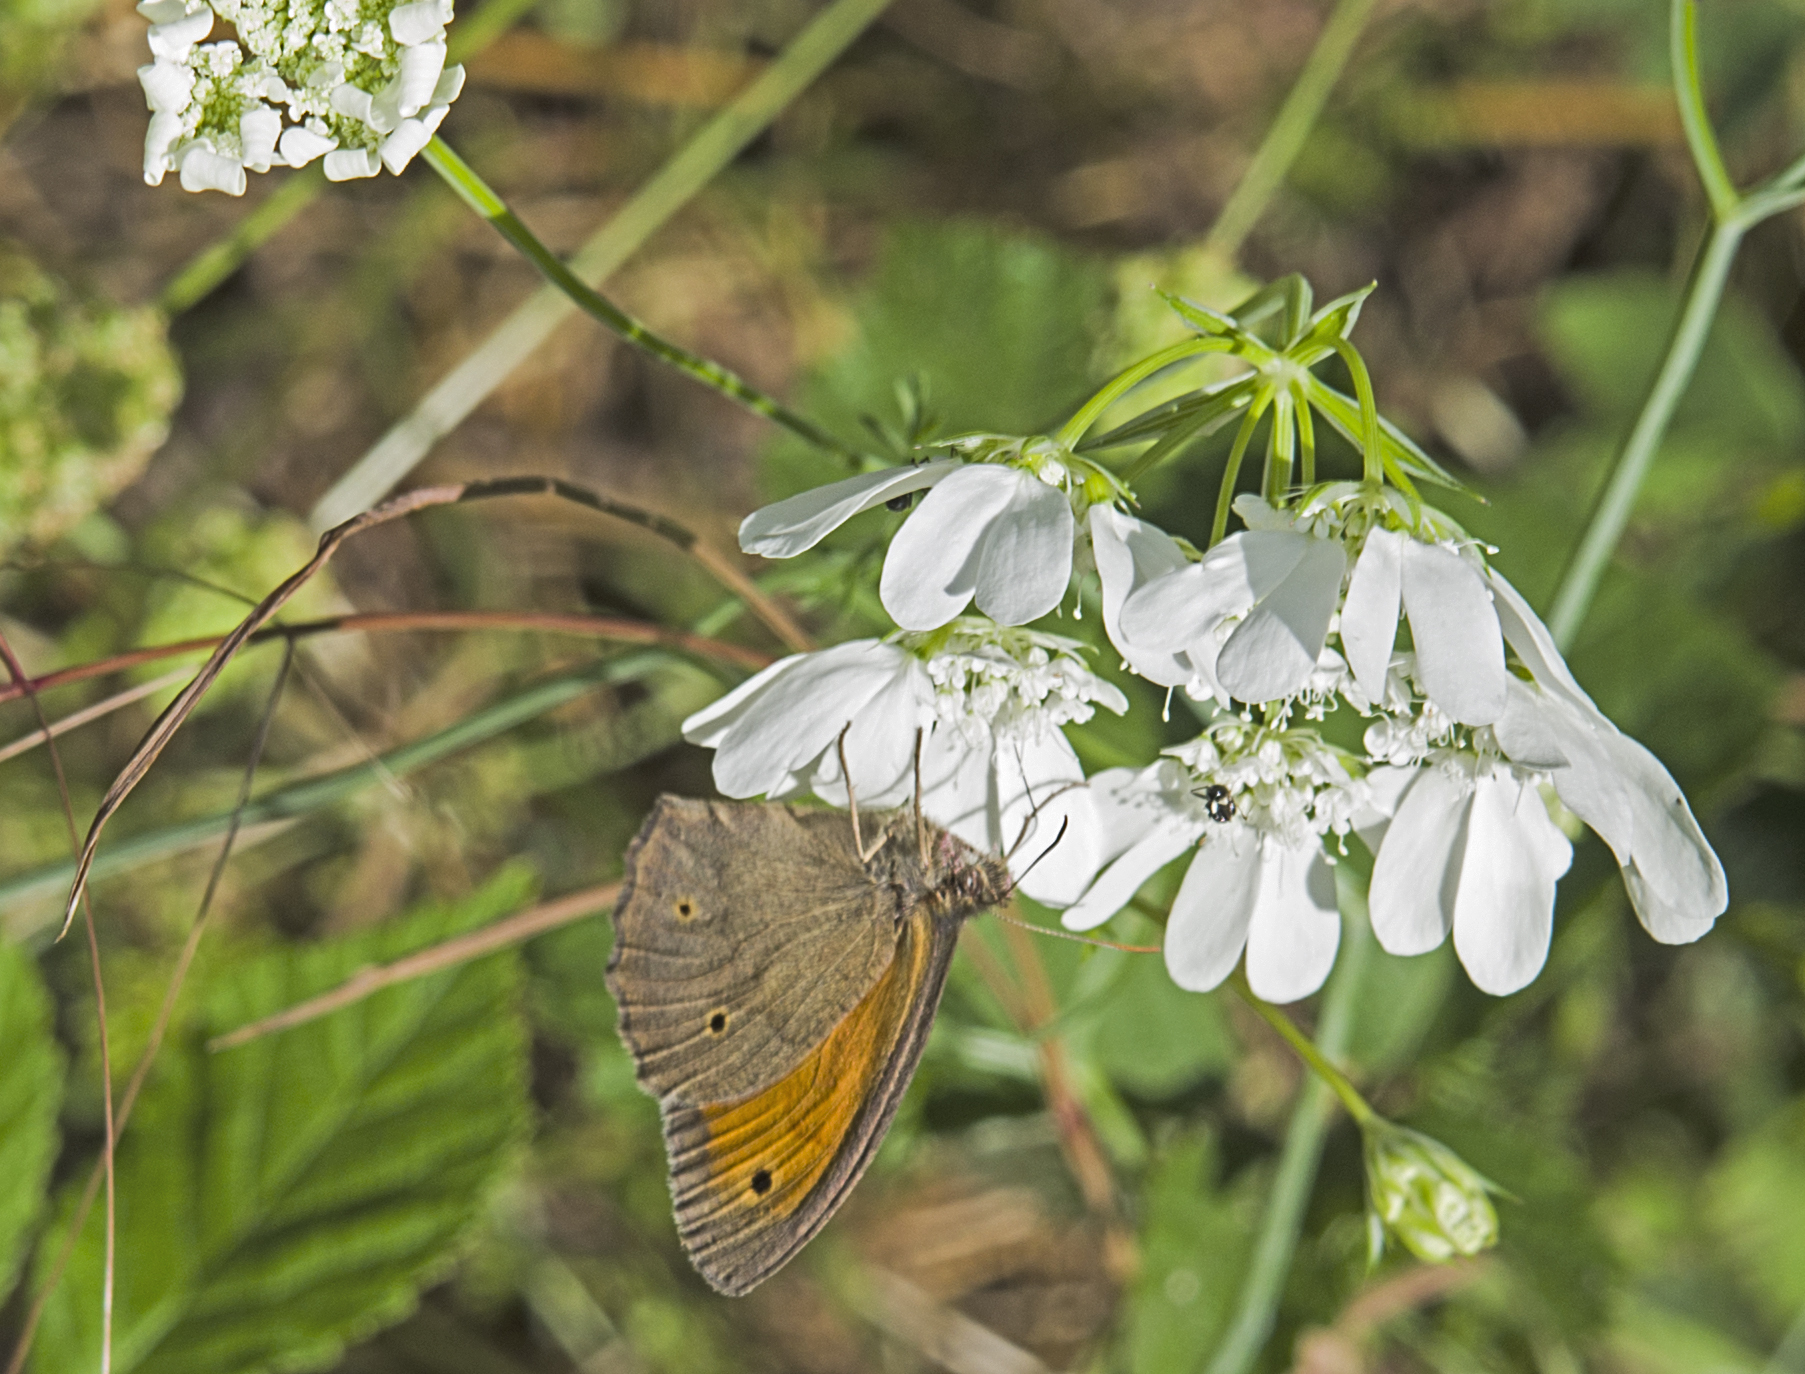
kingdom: Animalia
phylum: Arthropoda
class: Insecta
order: Lepidoptera
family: Nymphalidae
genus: Maniola
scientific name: Maniola jurtina
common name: Meadow brown
